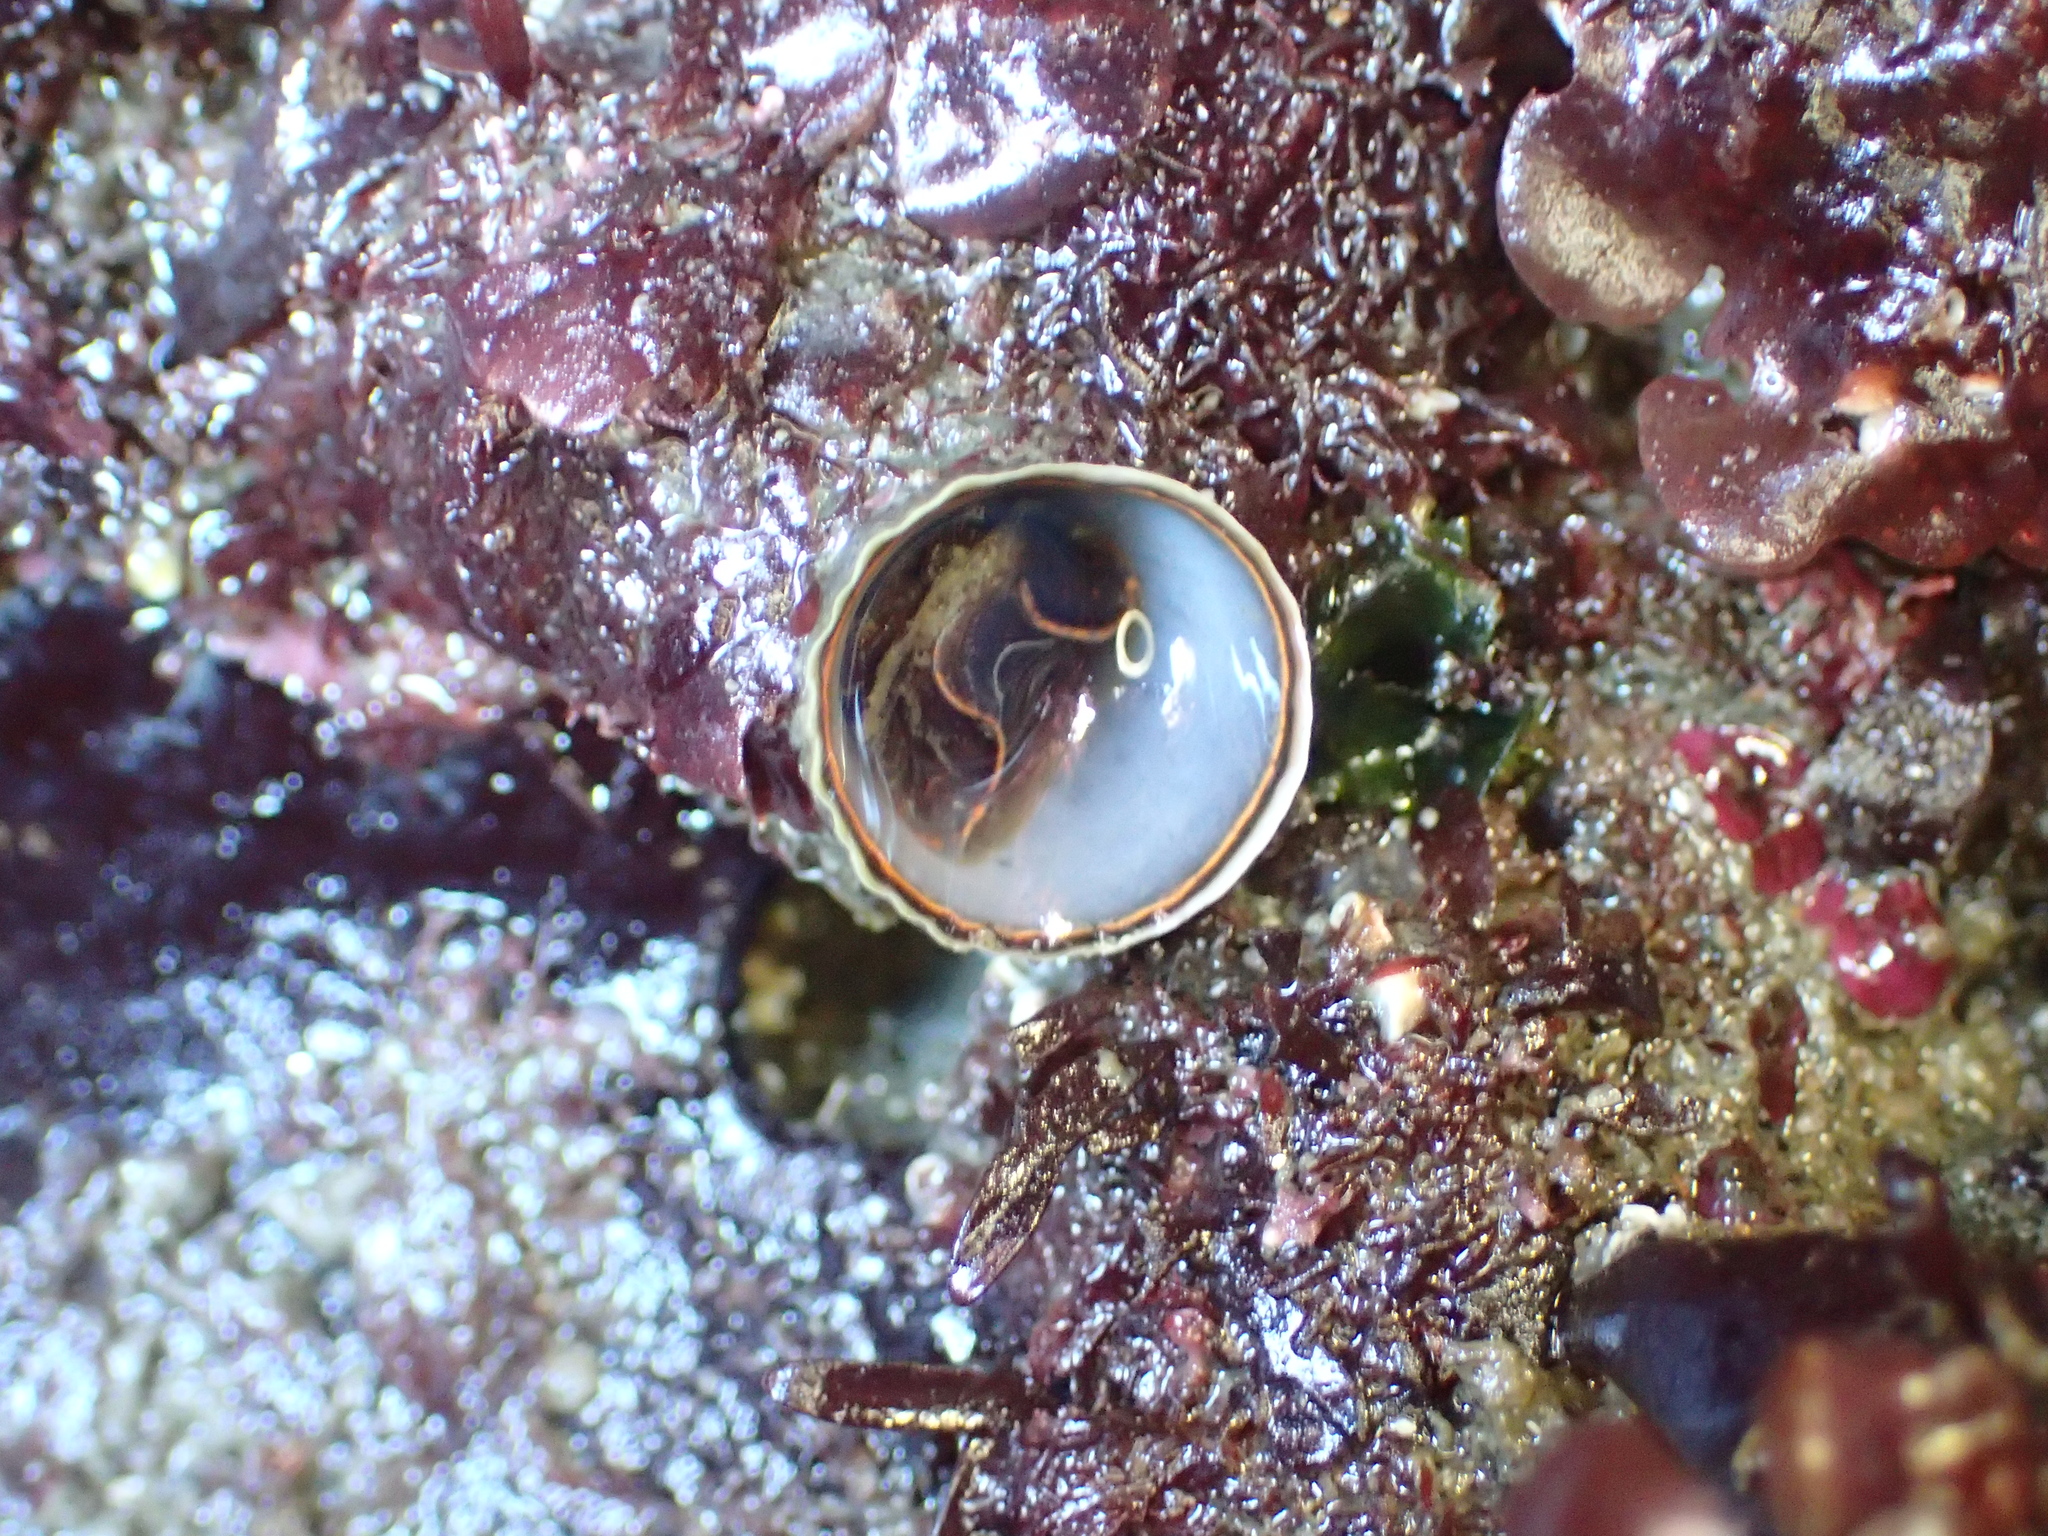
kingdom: Animalia
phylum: Mollusca
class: Gastropoda
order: Littorinimorpha
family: Vermetidae
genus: Thylacodes
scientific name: Thylacodes squamigerus
